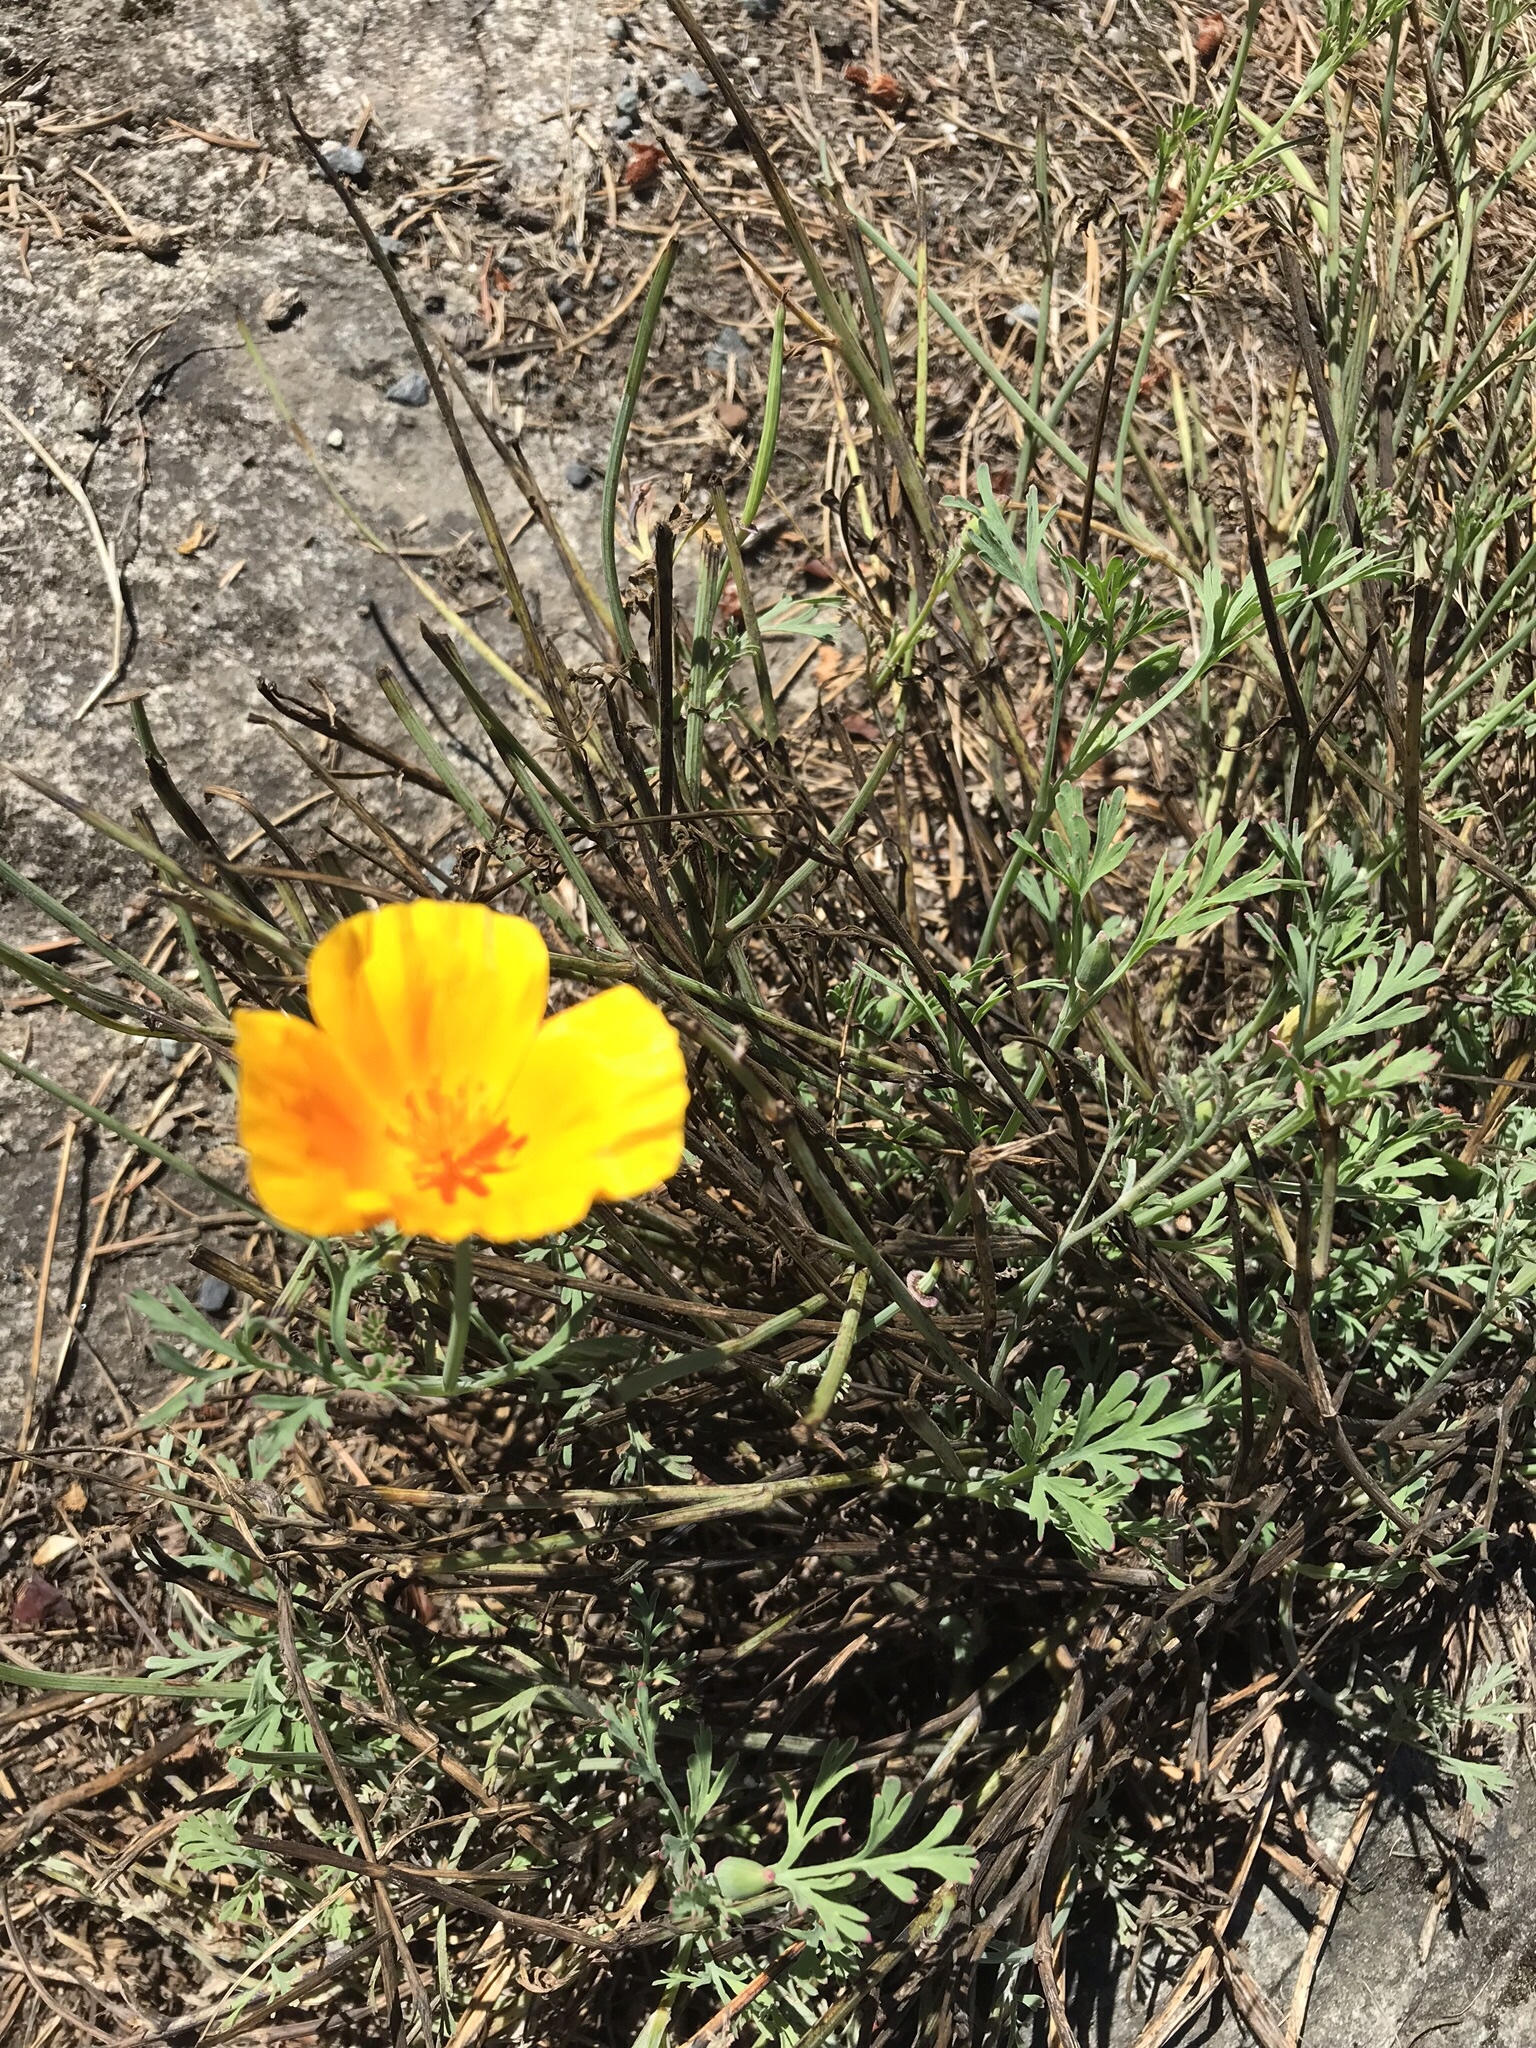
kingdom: Plantae
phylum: Tracheophyta
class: Magnoliopsida
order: Ranunculales
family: Papaveraceae
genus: Eschscholzia
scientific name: Eschscholzia californica
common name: California poppy
